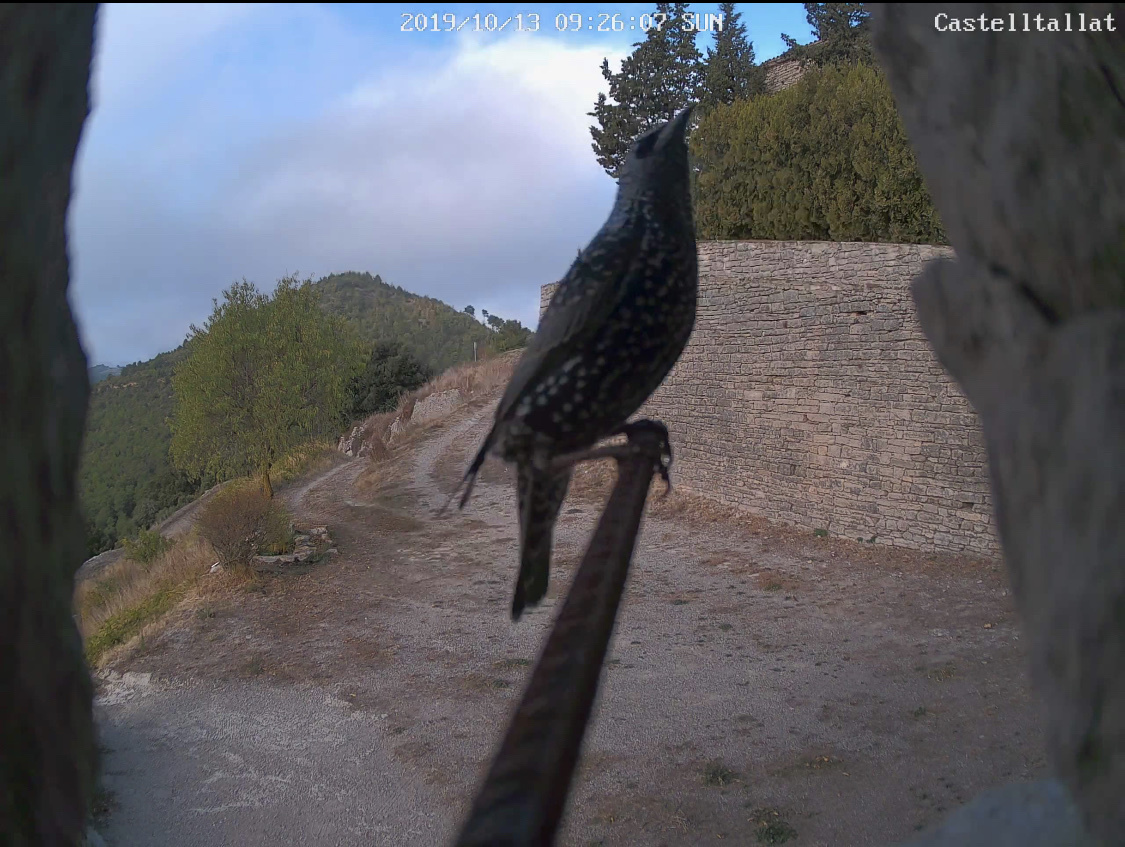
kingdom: Animalia
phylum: Chordata
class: Aves
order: Passeriformes
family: Sturnidae
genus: Sturnus
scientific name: Sturnus vulgaris
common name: Common starling
